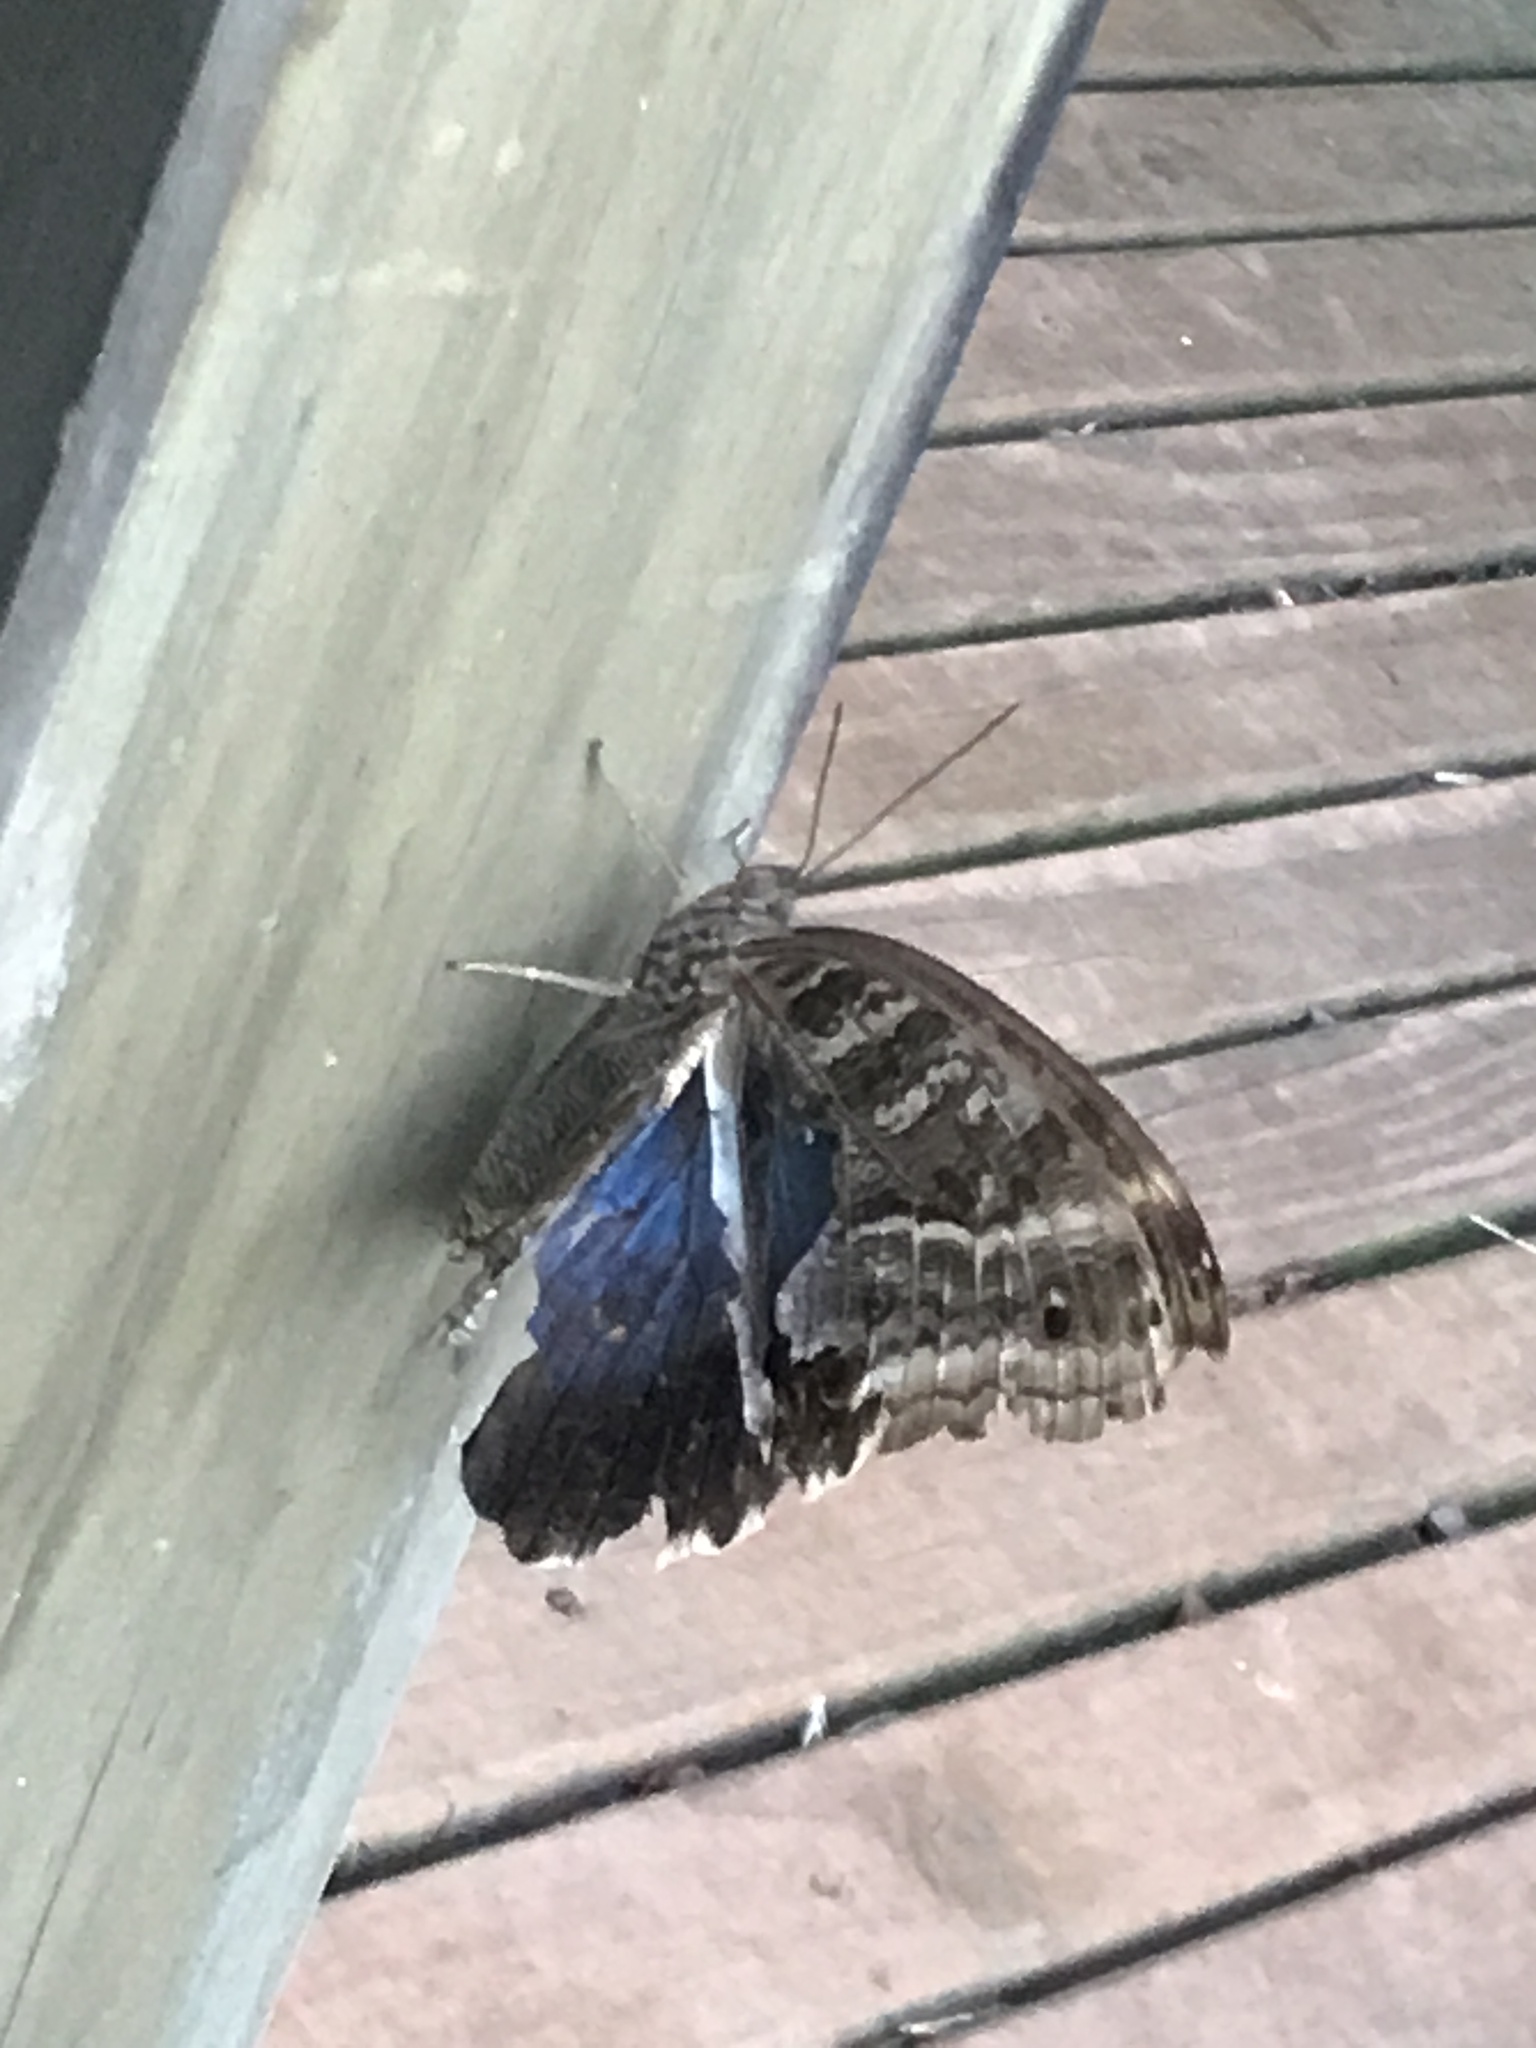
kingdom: Animalia
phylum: Arthropoda
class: Insecta
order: Lepidoptera
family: Nymphalidae
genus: Caligo
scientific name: Caligo illioneus
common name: Dusky owl-butterfly
